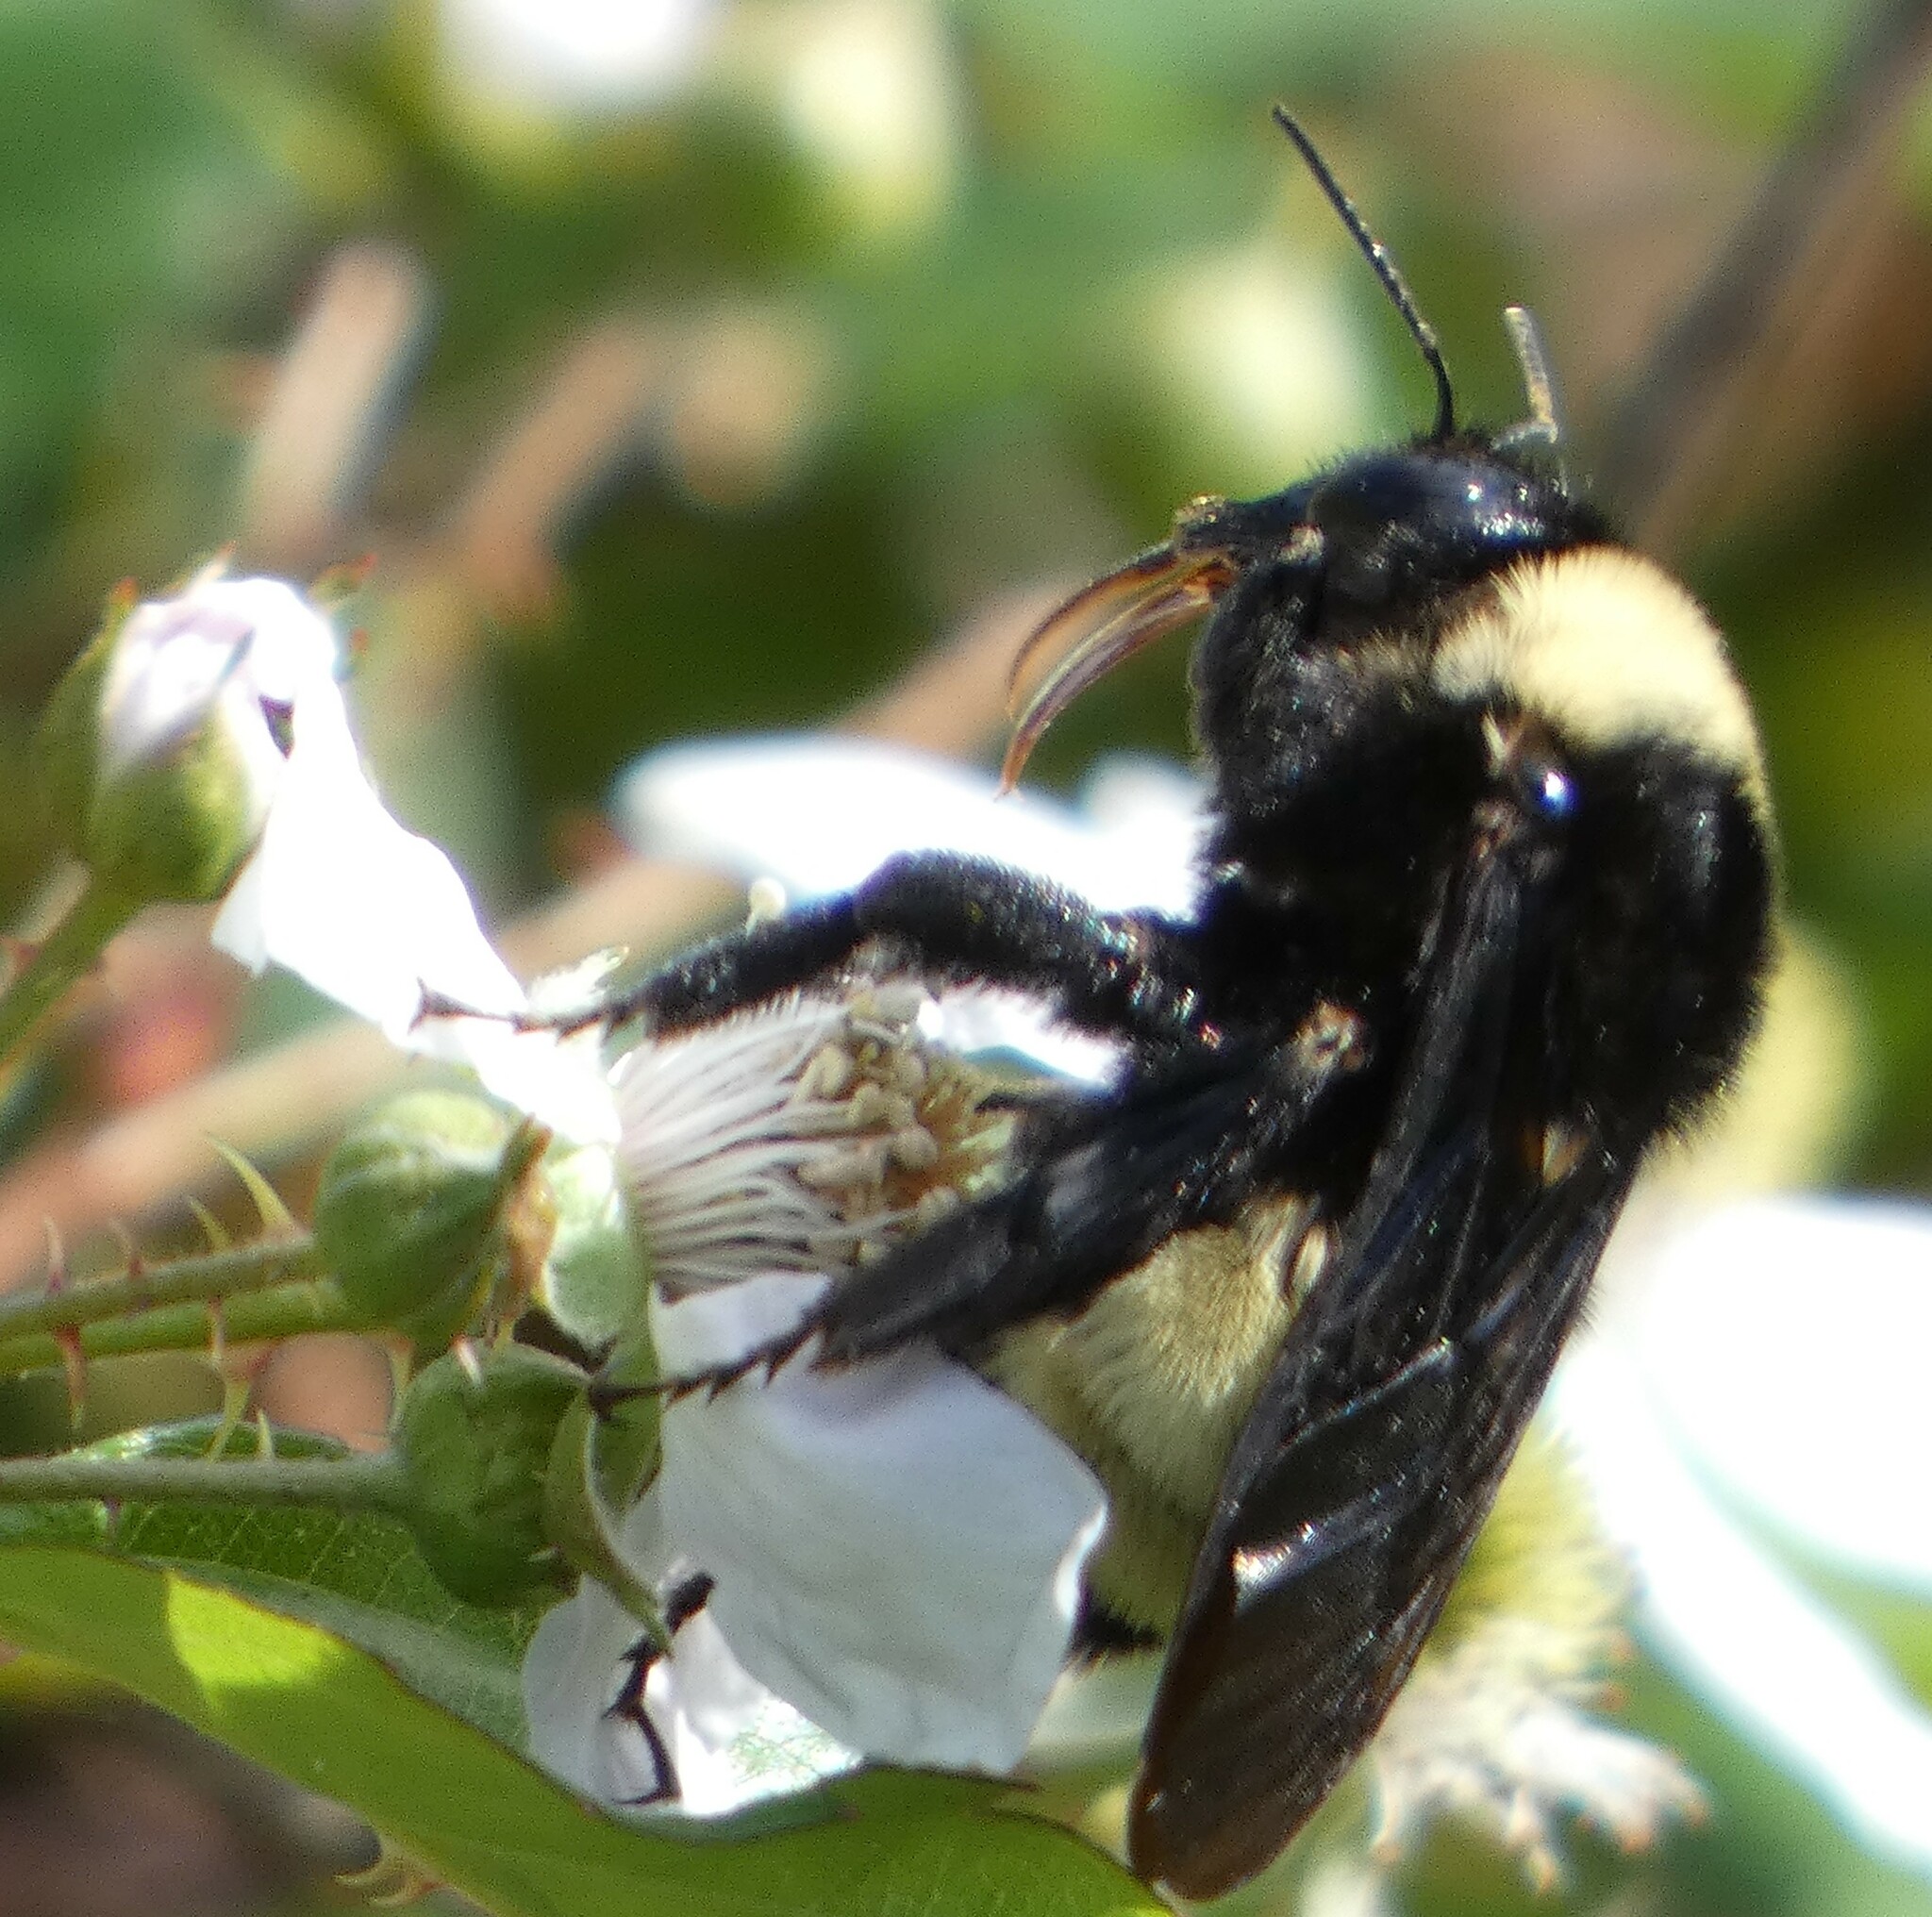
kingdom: Animalia
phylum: Arthropoda
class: Insecta
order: Hymenoptera
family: Apidae
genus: Bombus
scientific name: Bombus pensylvanicus
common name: Bumble bee
